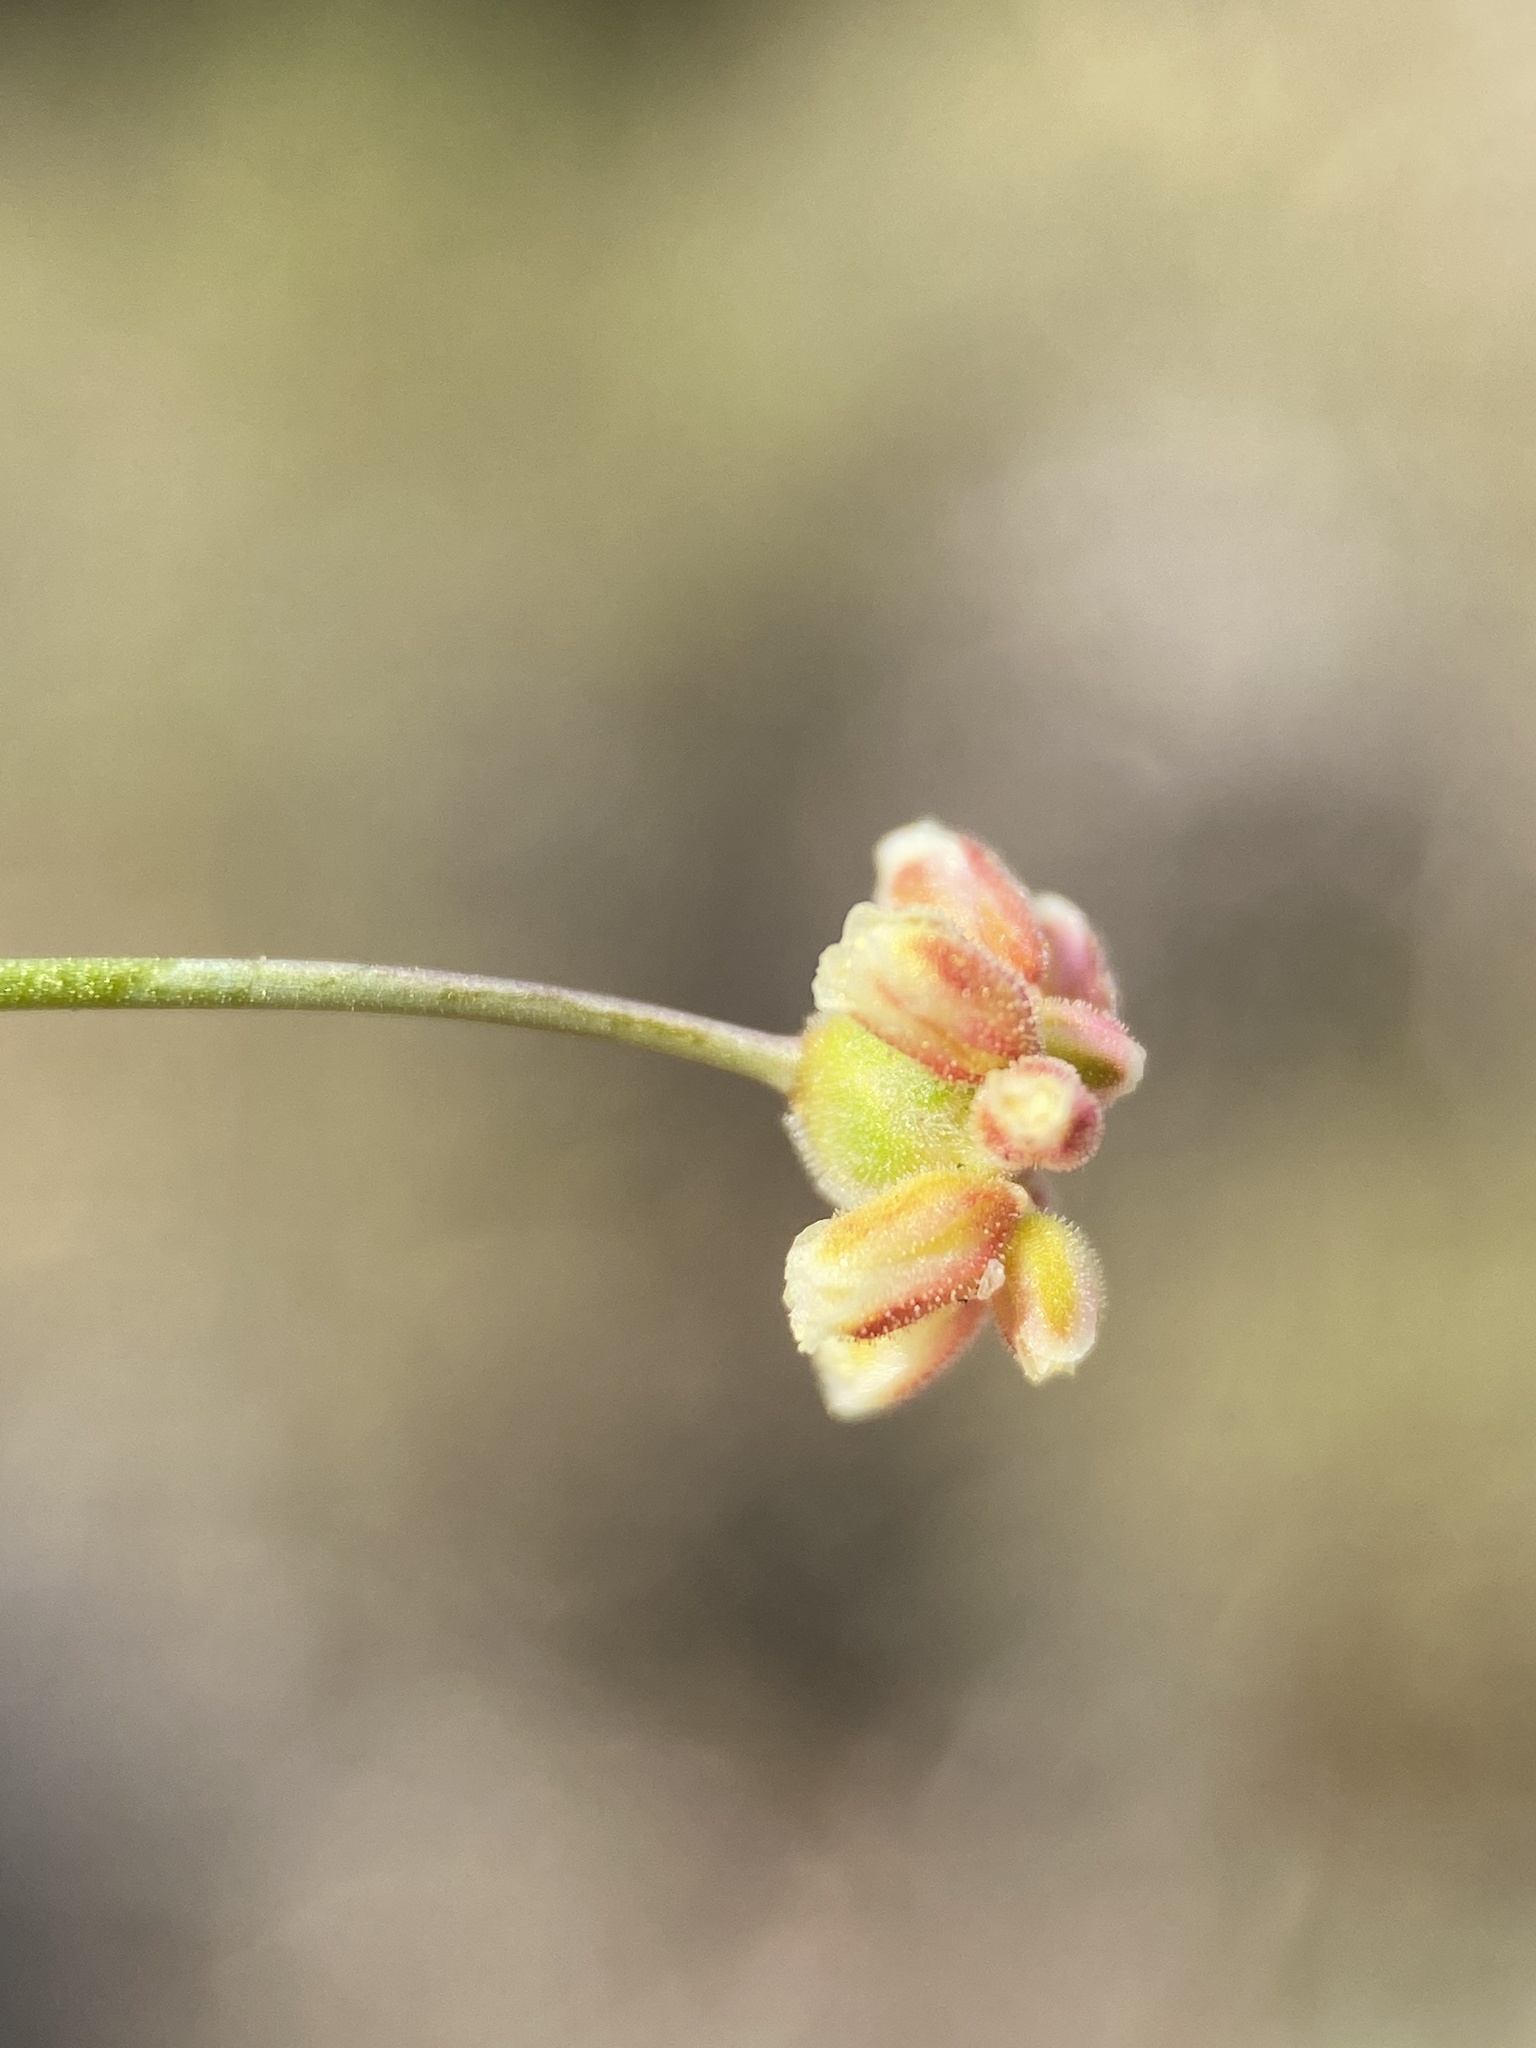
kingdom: Plantae
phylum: Tracheophyta
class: Magnoliopsida
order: Caryophyllales
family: Polygonaceae
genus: Eriogonum
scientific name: Eriogonum pusillum
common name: Yellow turbans
